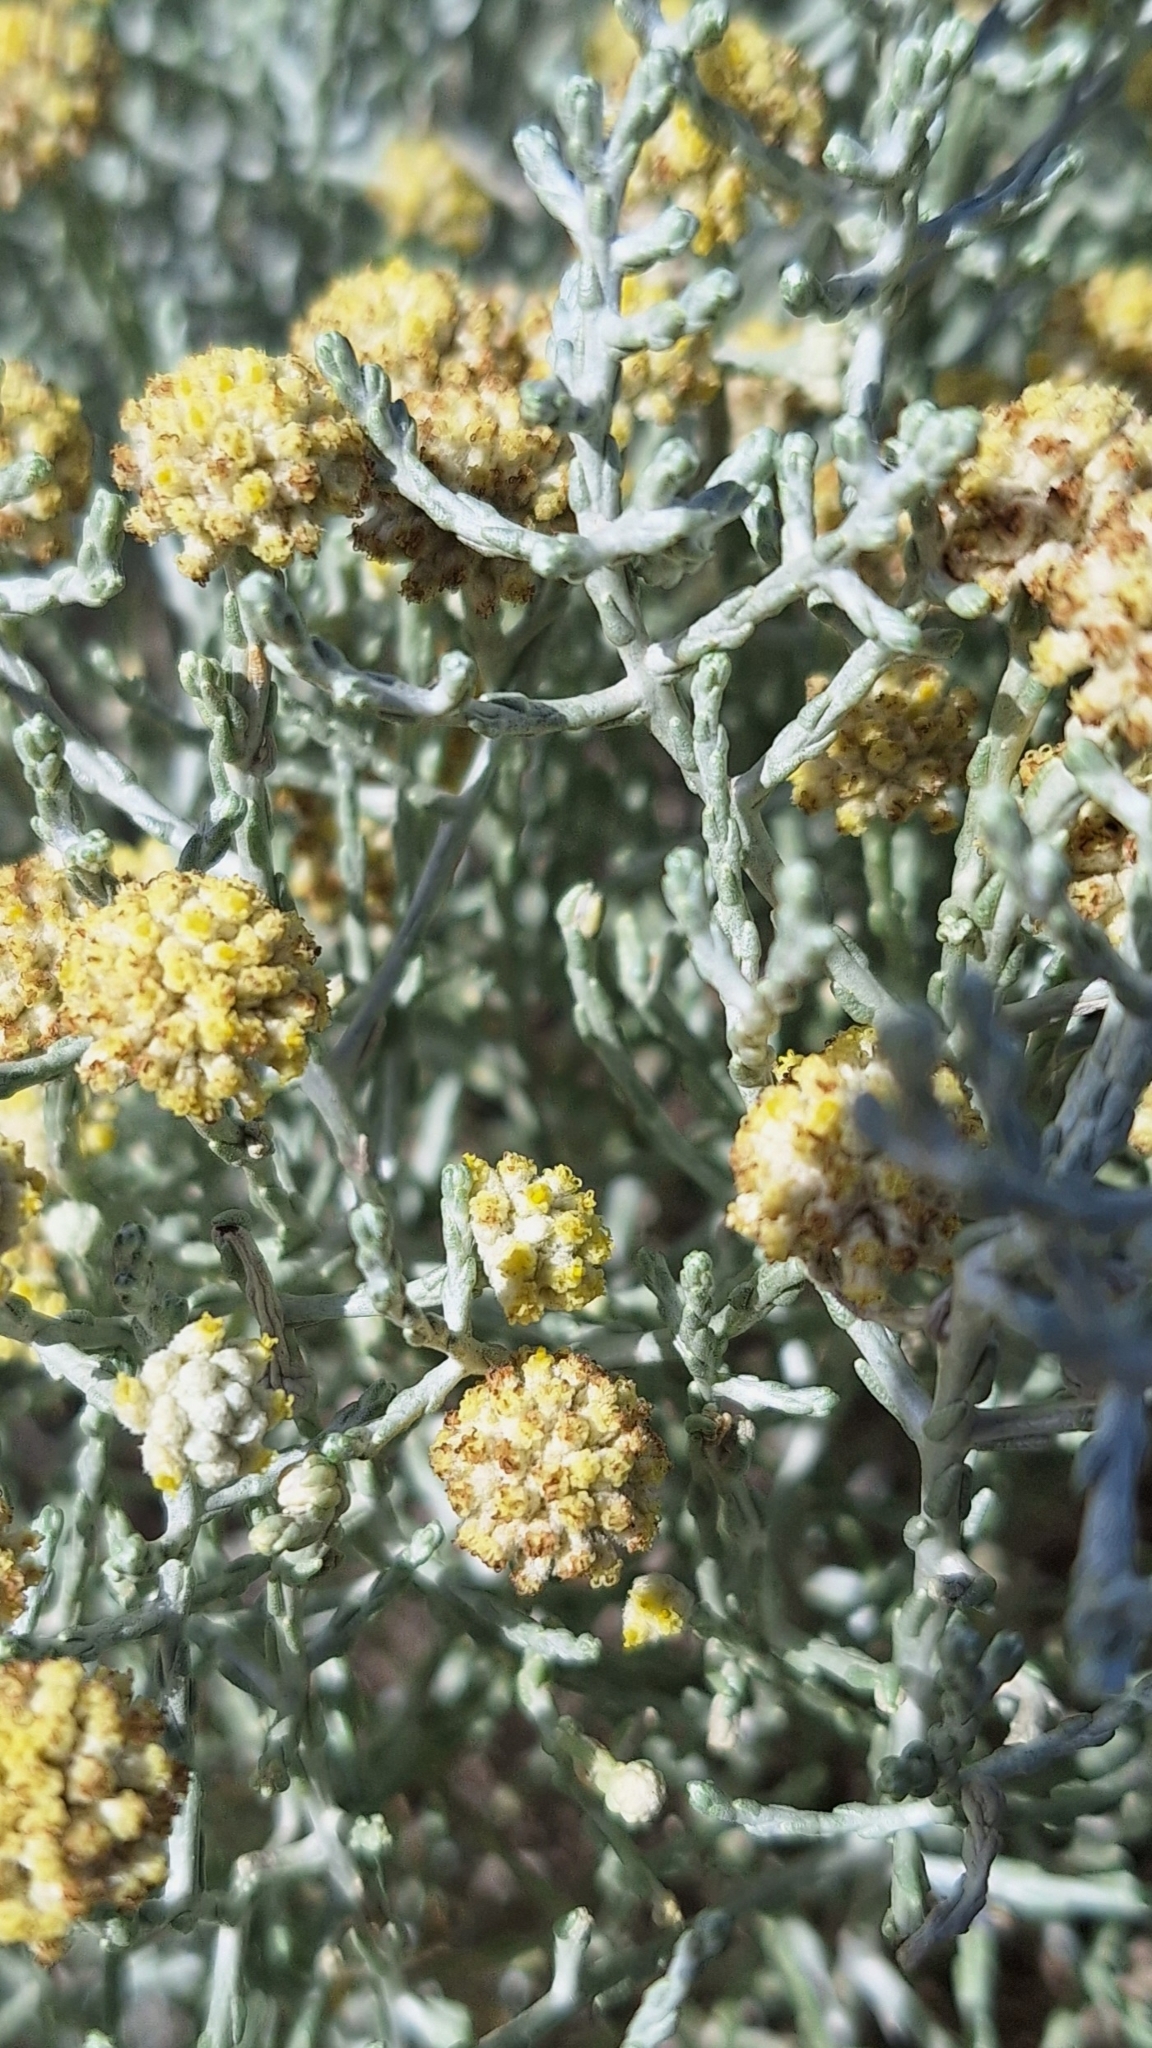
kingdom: Plantae
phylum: Tracheophyta
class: Magnoliopsida
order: Asterales
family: Asteraceae
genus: Calocephalus
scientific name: Calocephalus brownii
